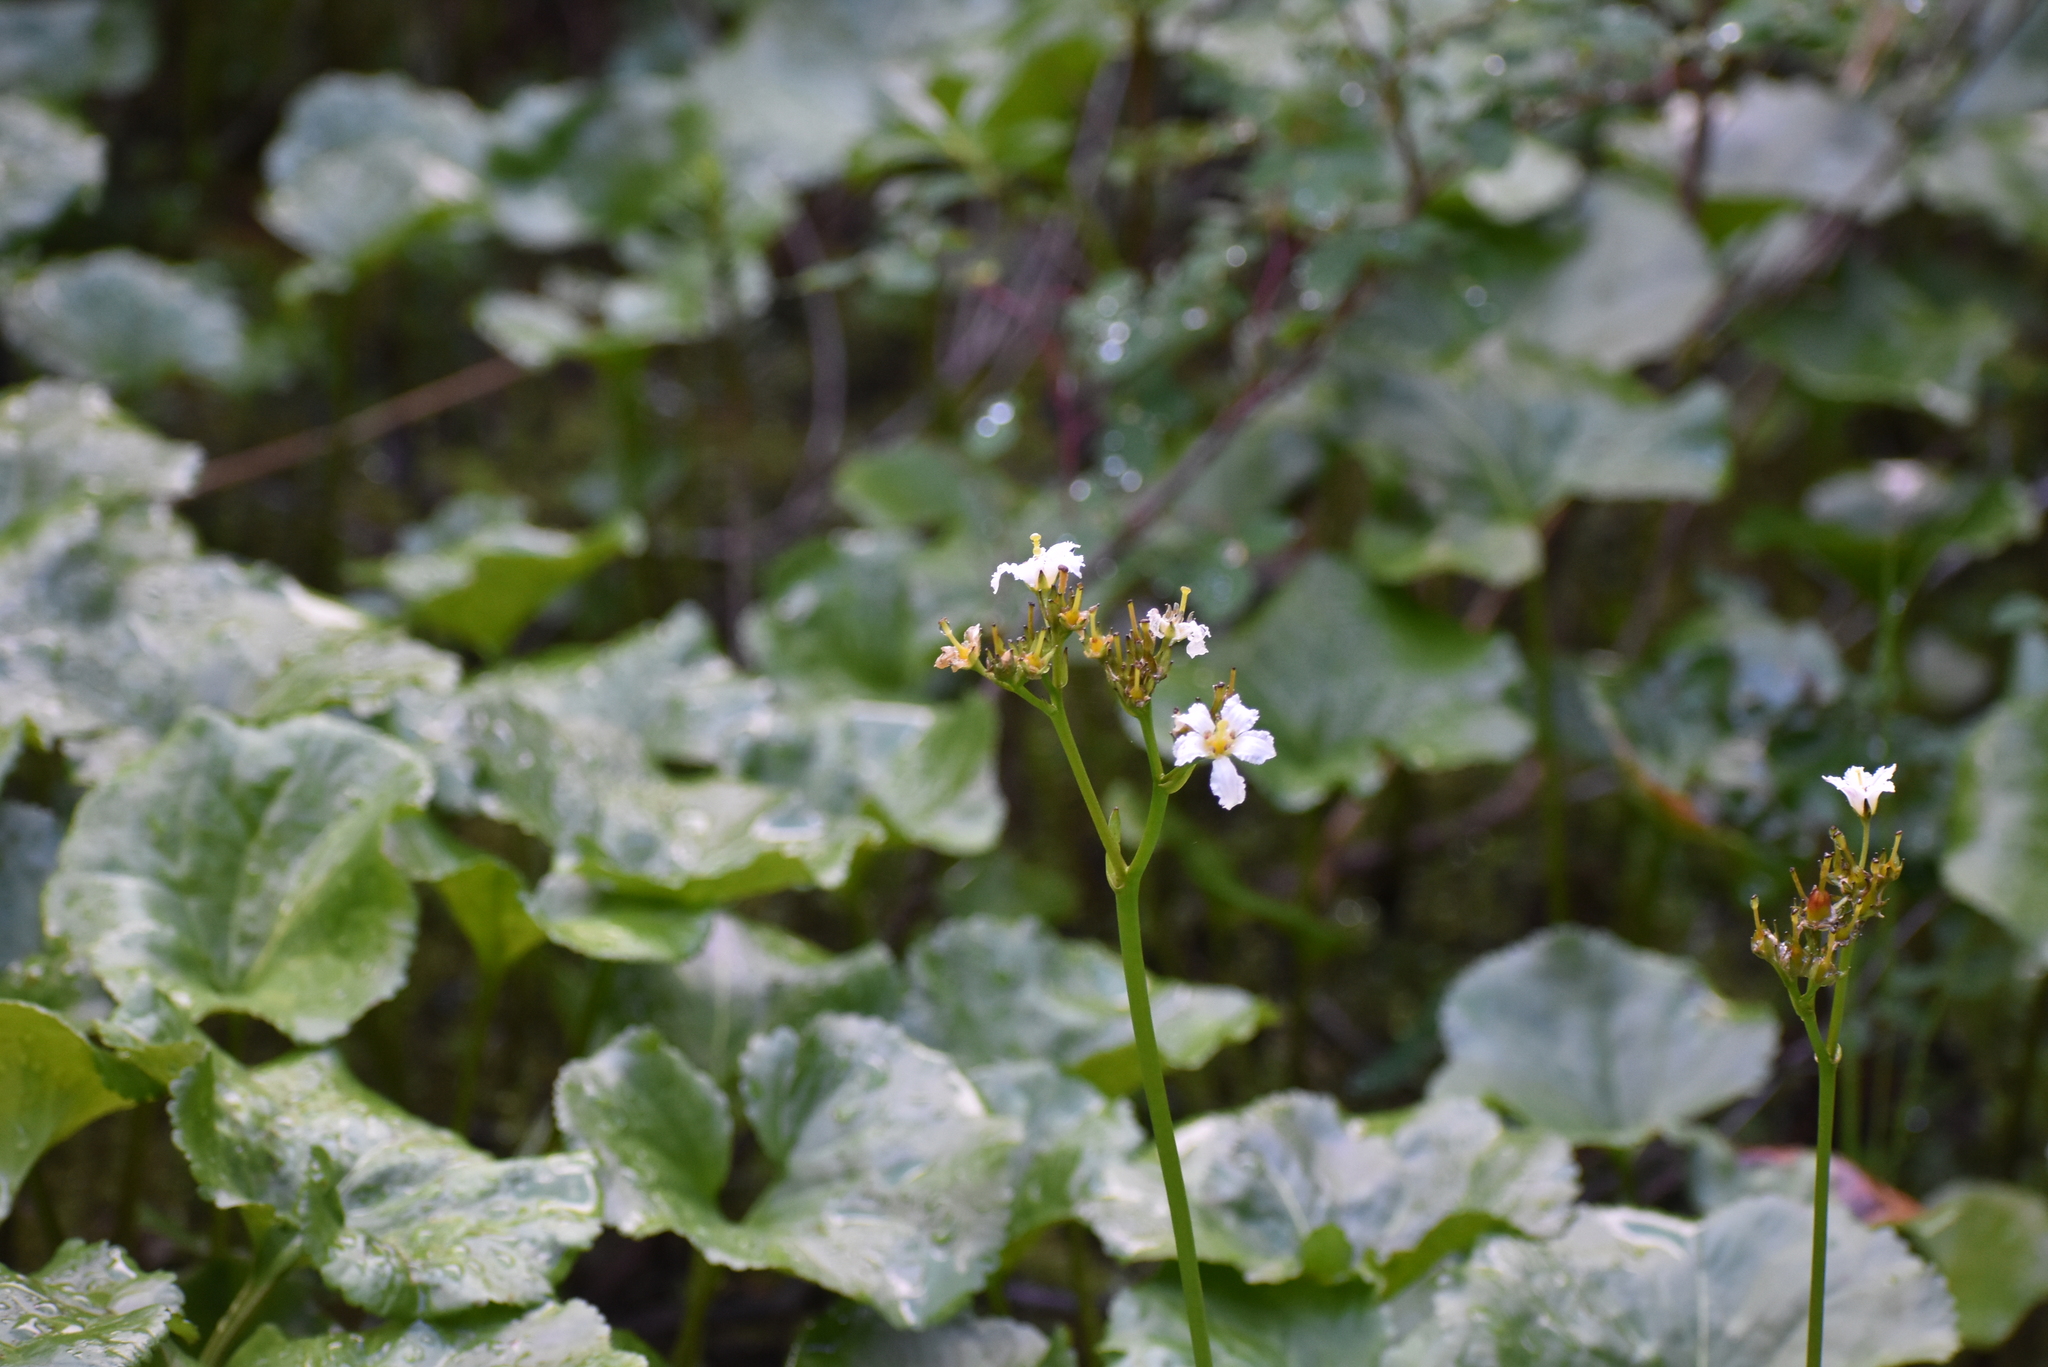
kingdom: Plantae
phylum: Tracheophyta
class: Magnoliopsida
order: Asterales
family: Menyanthaceae
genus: Nephrophyllidium
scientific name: Nephrophyllidium crista-galli
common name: Deer-cabbage
